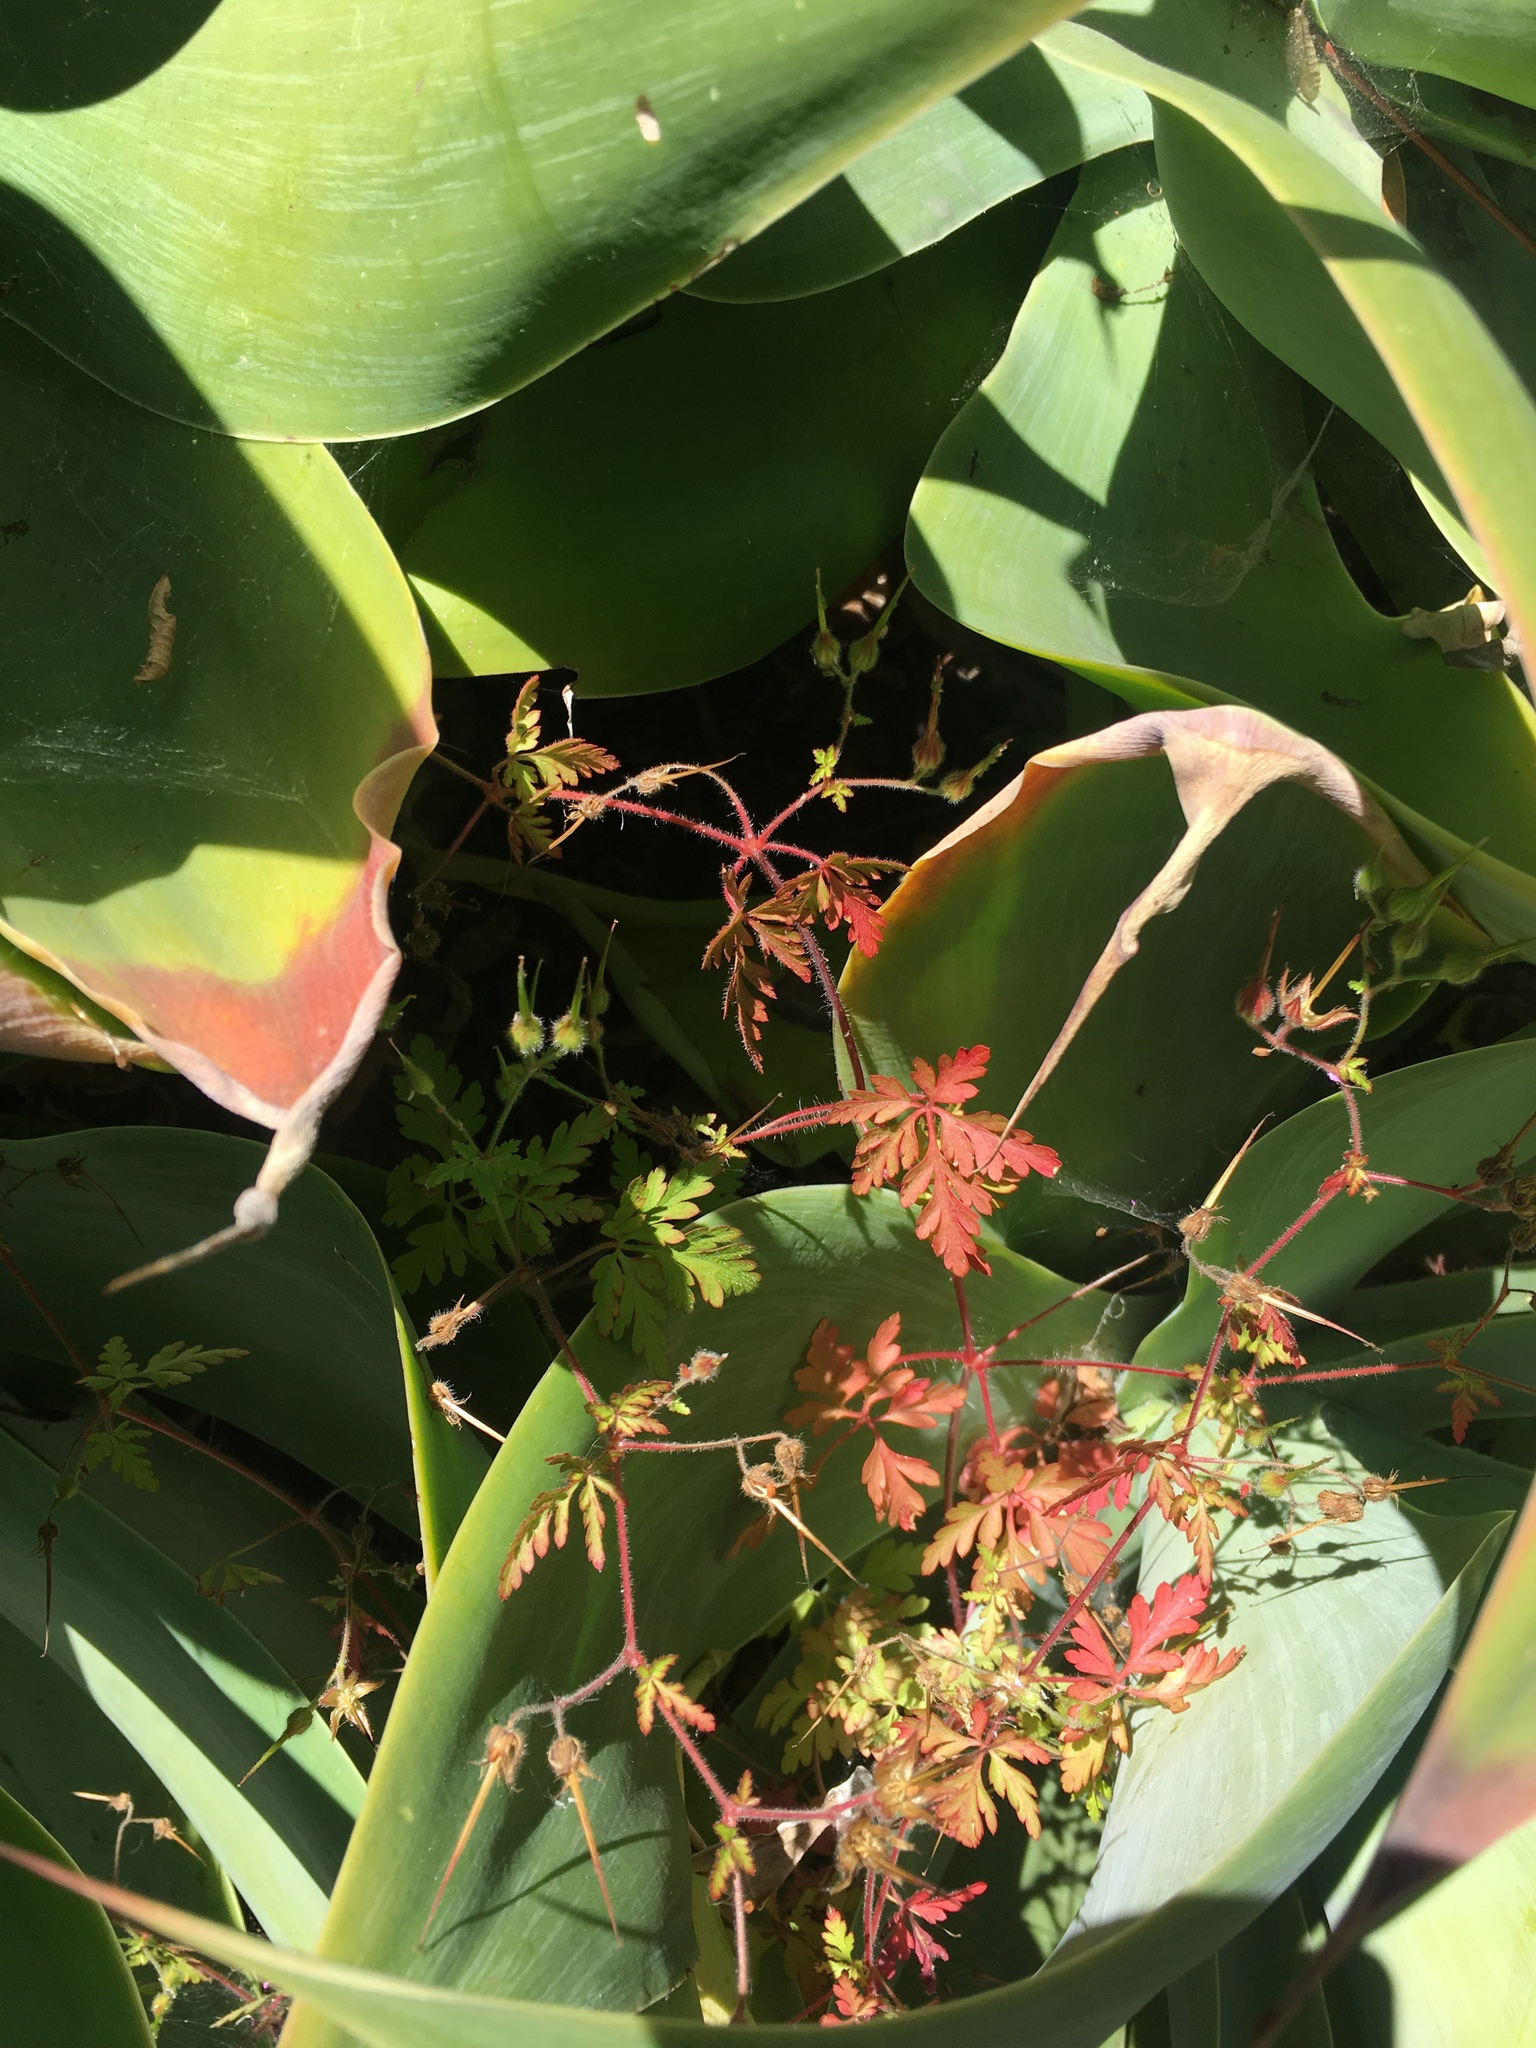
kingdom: Plantae
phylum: Tracheophyta
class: Magnoliopsida
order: Geraniales
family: Geraniaceae
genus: Geranium
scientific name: Geranium purpureum
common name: Little-robin
